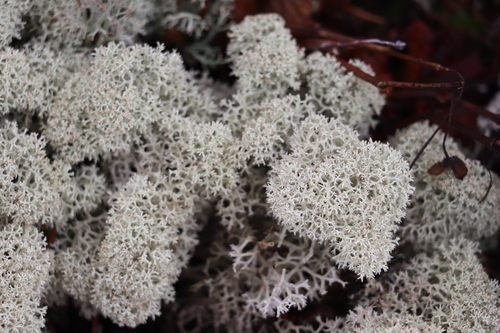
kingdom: Fungi
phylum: Ascomycota
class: Lecanoromycetes
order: Lecanorales
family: Cladoniaceae
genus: Cladonia
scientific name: Cladonia stellaris
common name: Star-tipped reindeer lichen
